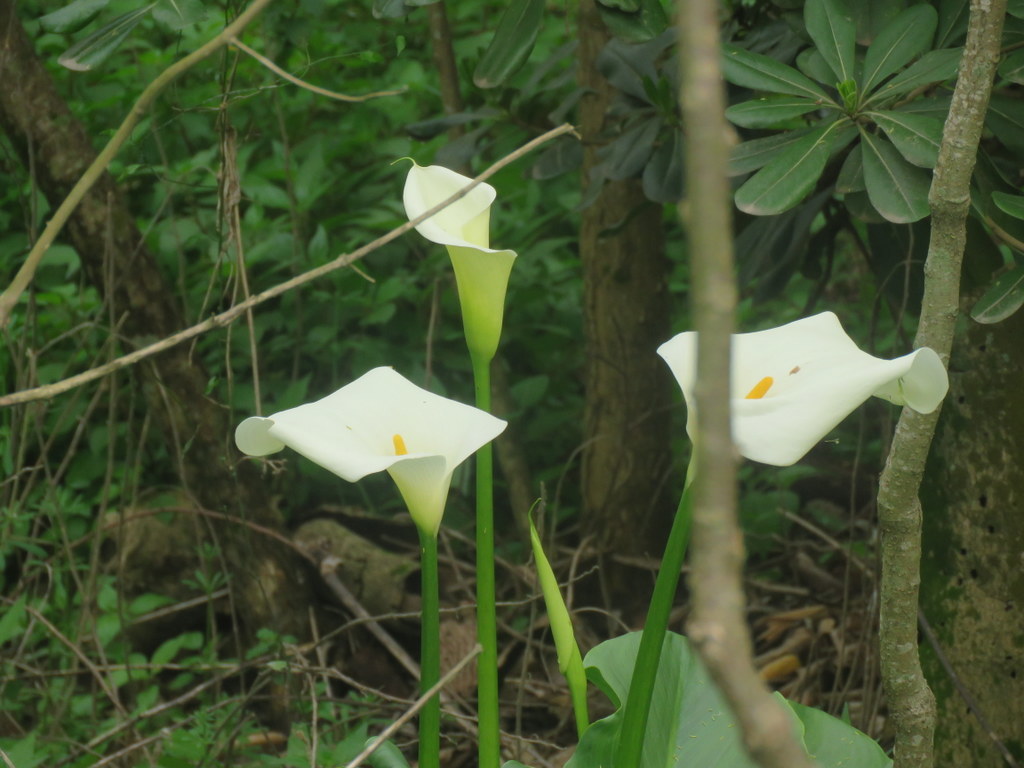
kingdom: Plantae
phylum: Tracheophyta
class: Liliopsida
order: Alismatales
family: Araceae
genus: Zantedeschia
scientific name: Zantedeschia aethiopica
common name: Altar-lily
